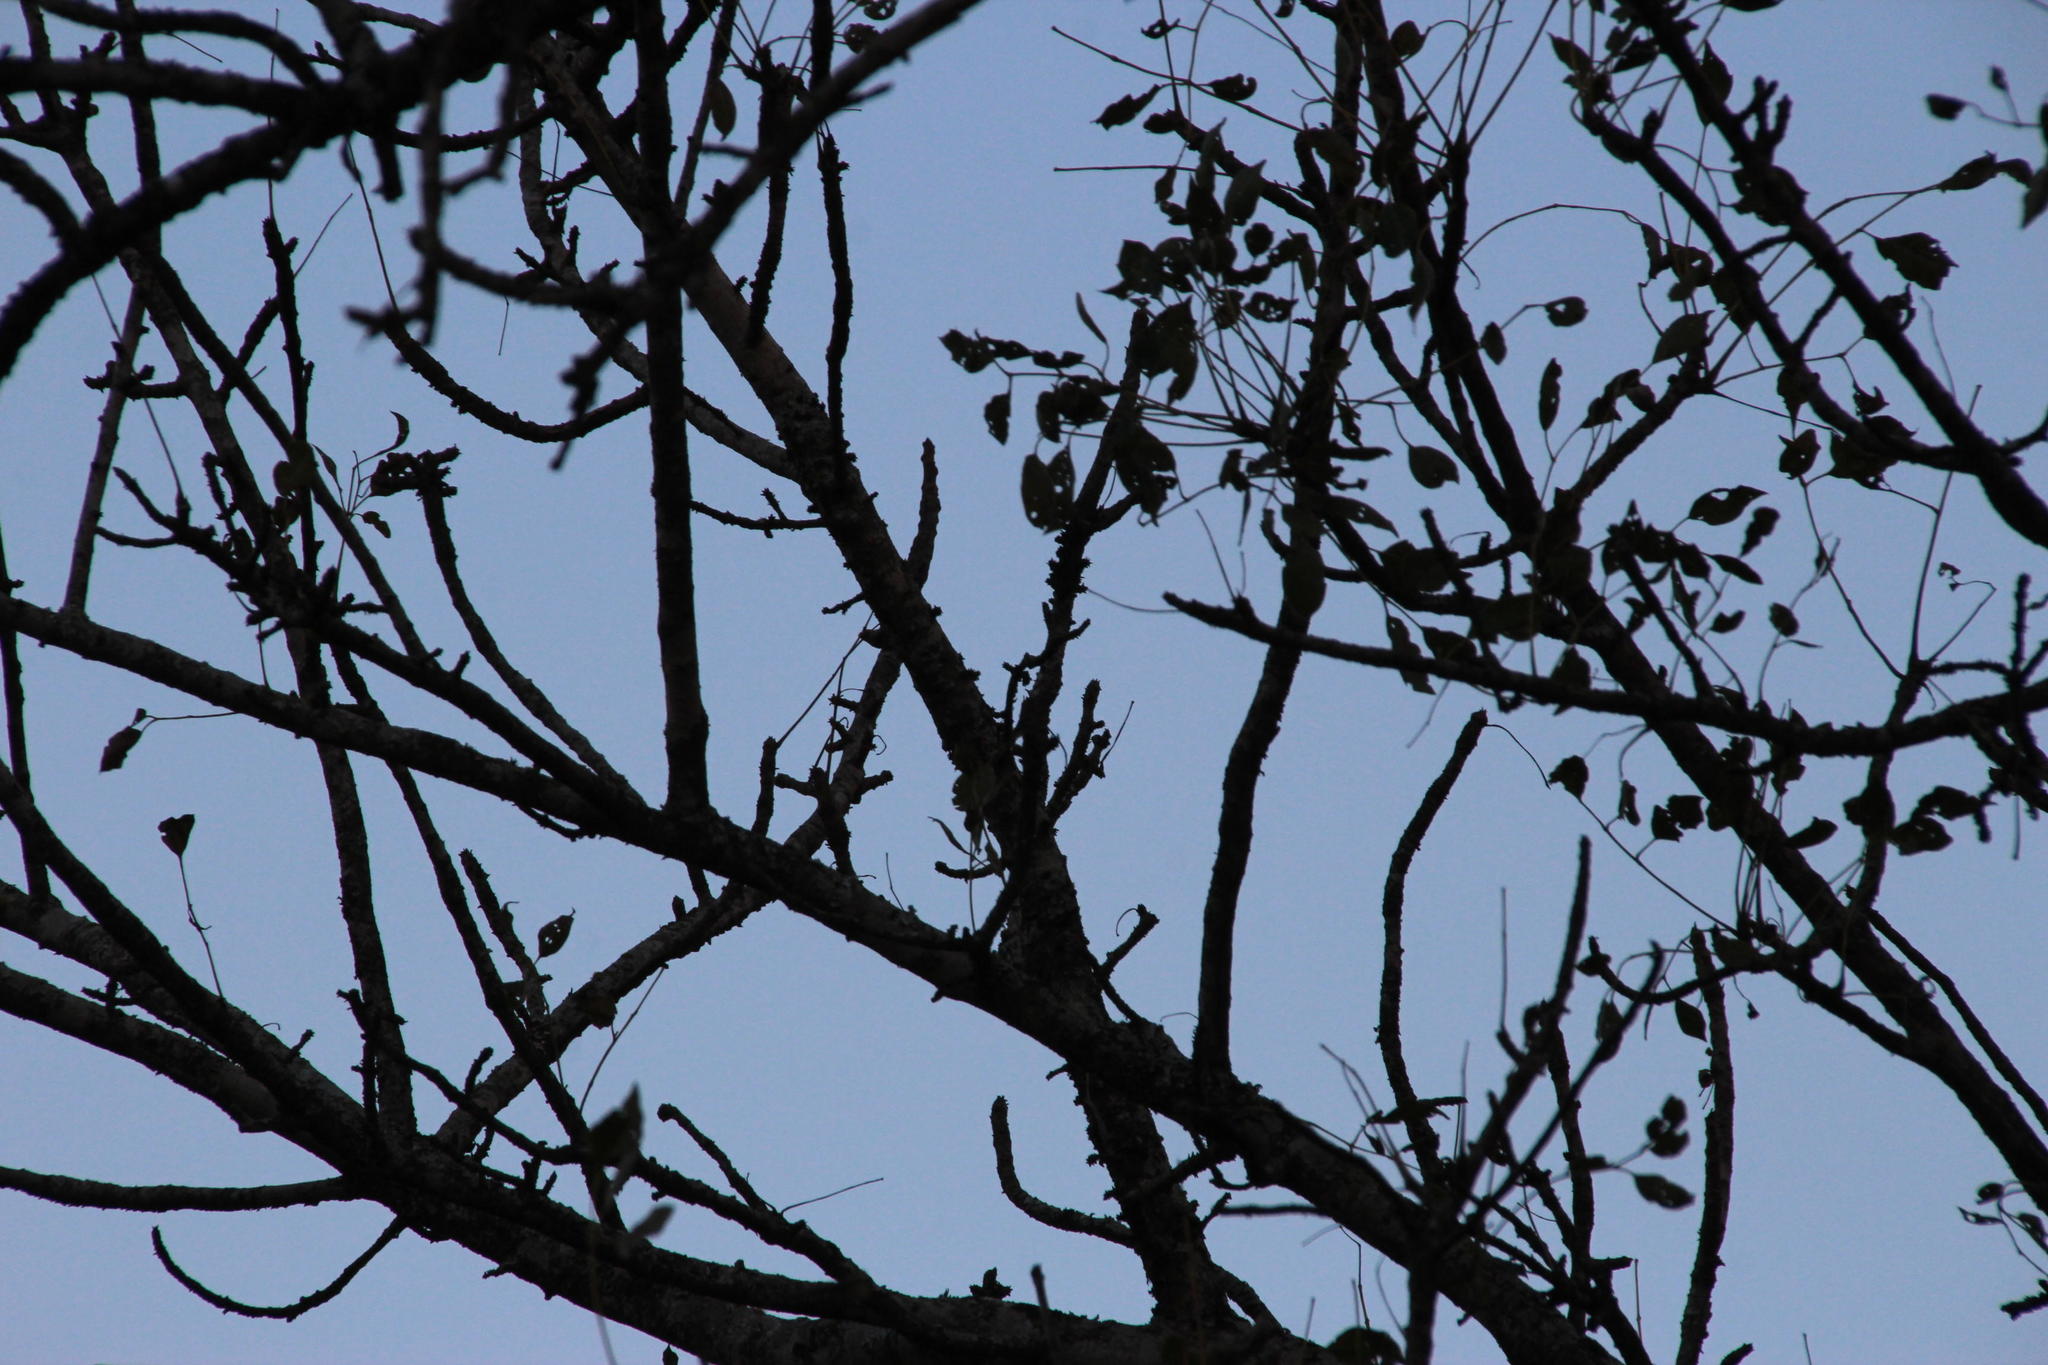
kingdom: Plantae
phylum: Tracheophyta
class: Magnoliopsida
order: Sapindales
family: Anacardiaceae
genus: Sclerocarya
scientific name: Sclerocarya birrea
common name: Marula
